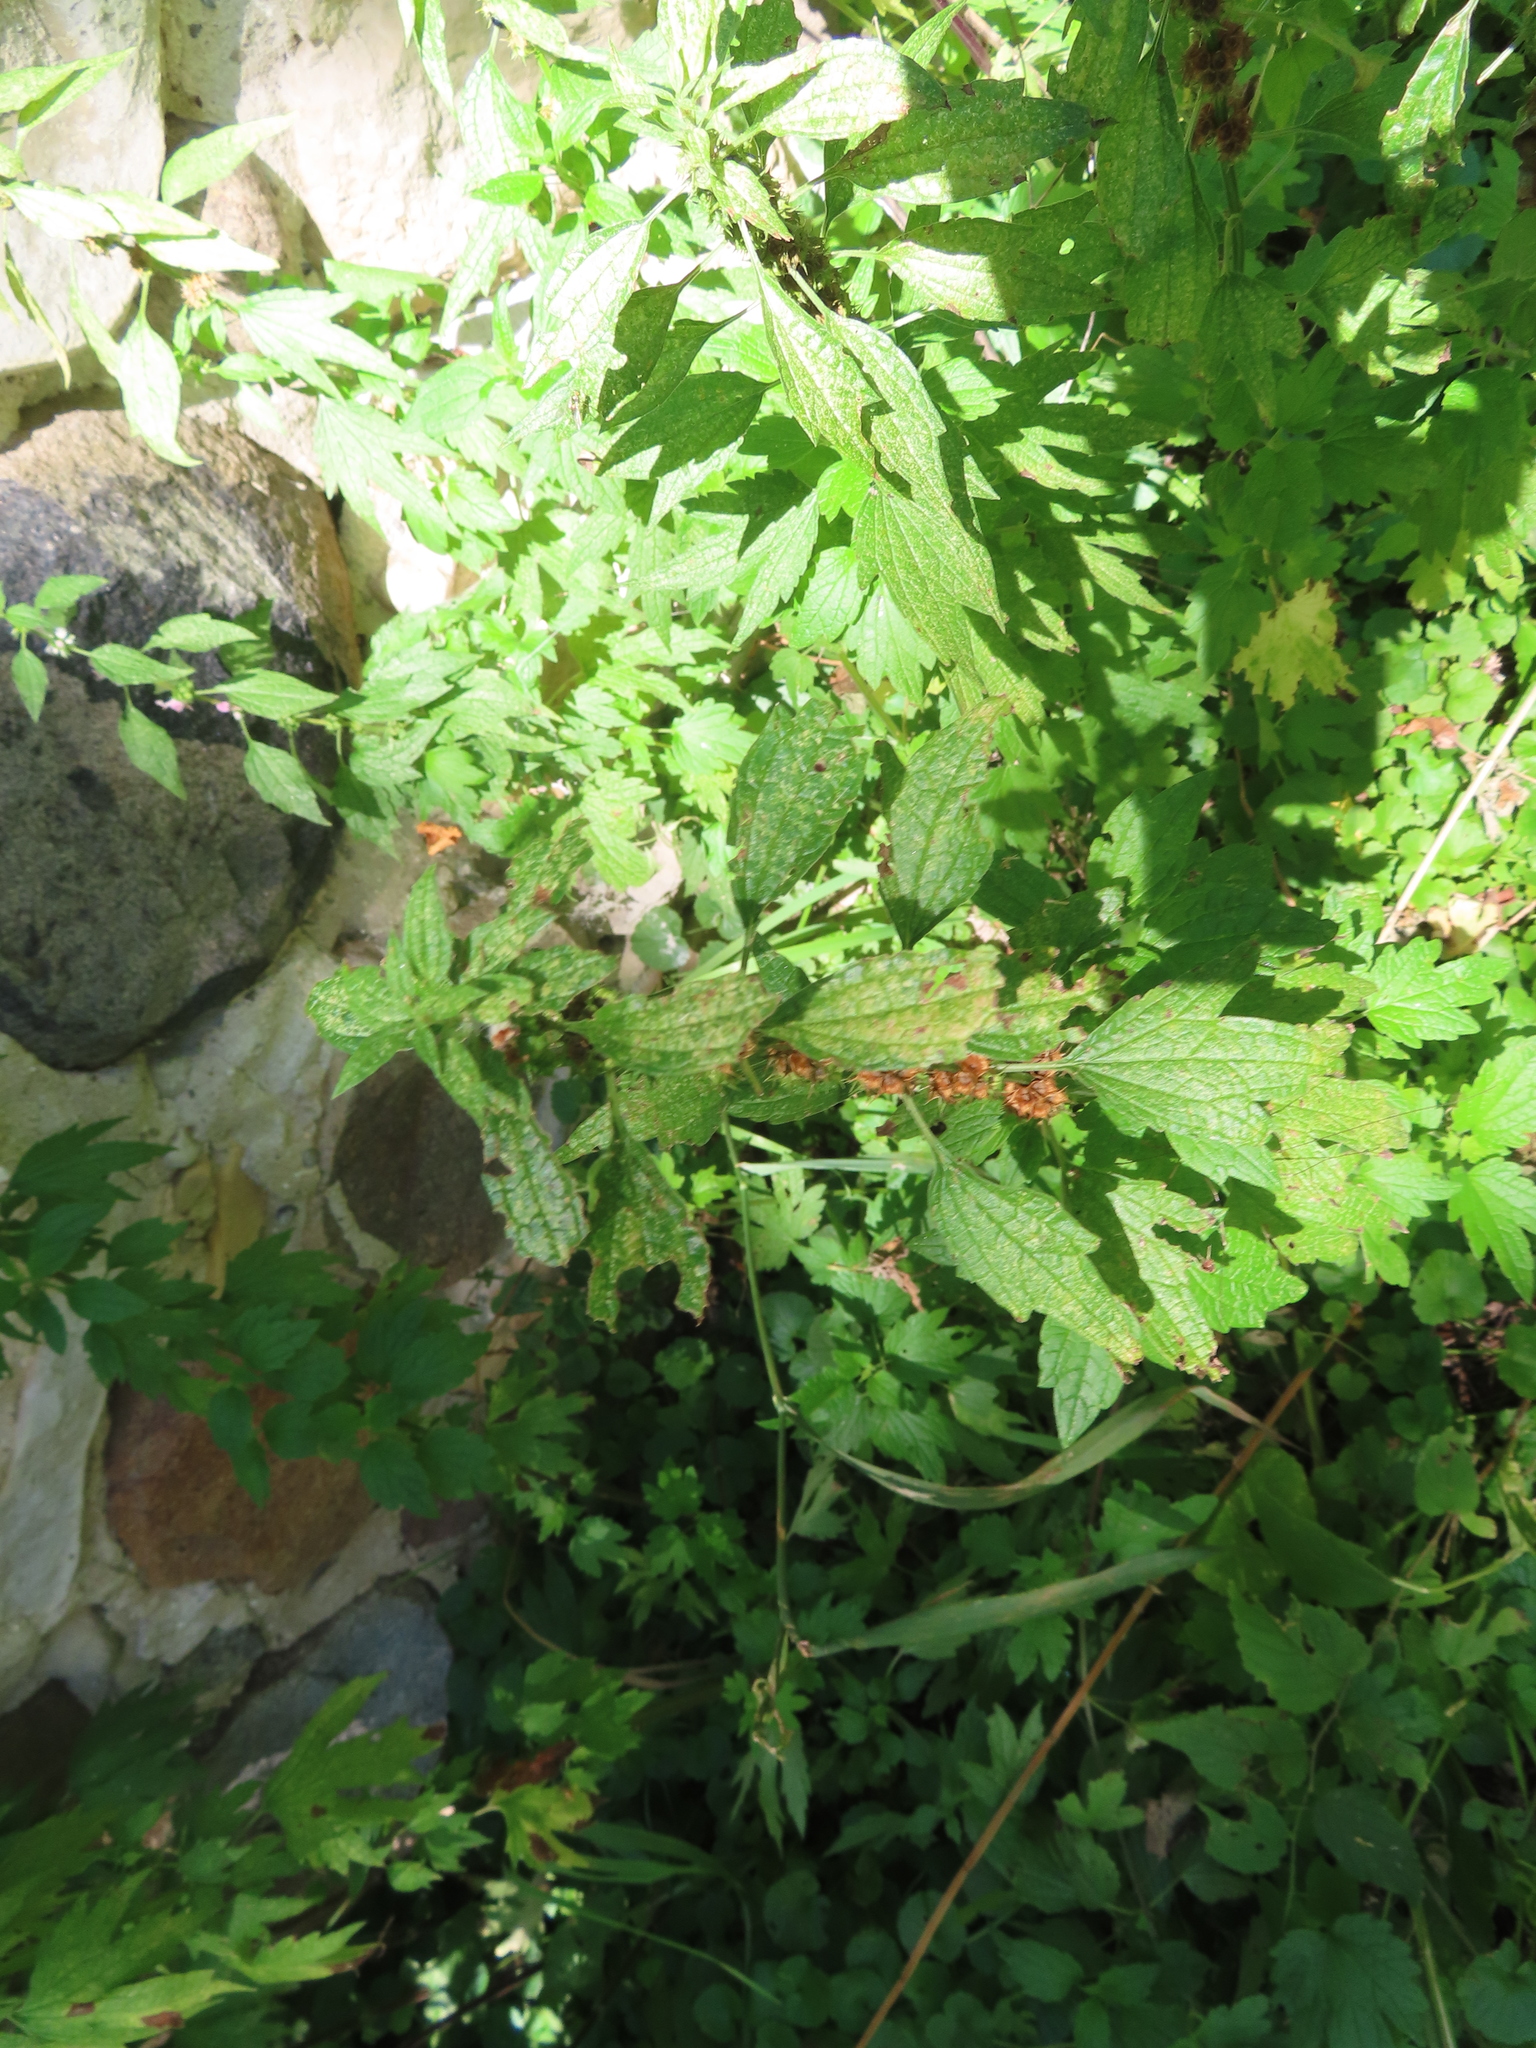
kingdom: Plantae
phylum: Tracheophyta
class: Magnoliopsida
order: Lamiales
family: Lamiaceae
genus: Leonurus
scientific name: Leonurus cardiaca
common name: Motherwort
